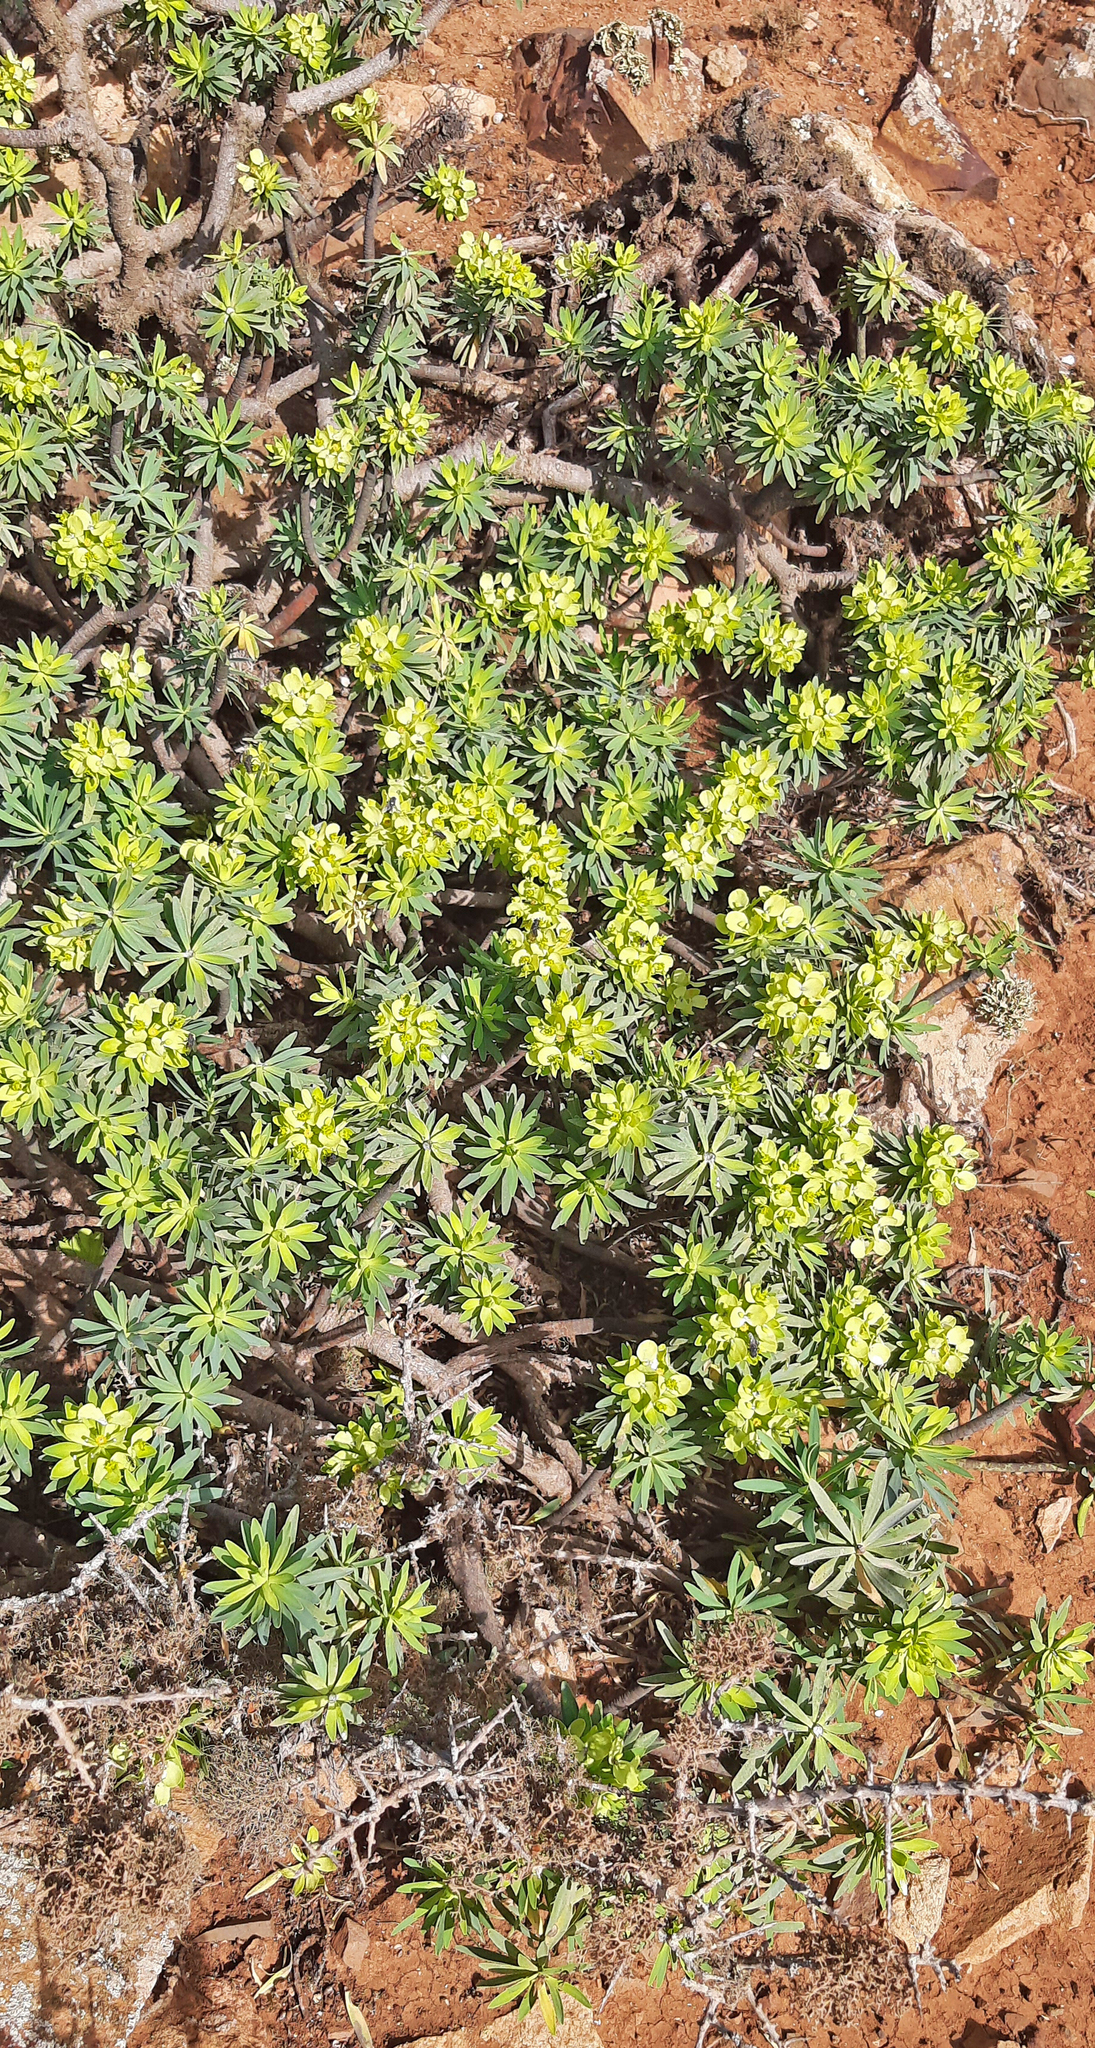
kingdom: Plantae
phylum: Tracheophyta
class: Magnoliopsida
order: Malpighiales
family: Euphorbiaceae
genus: Euphorbia
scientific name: Euphorbia regis-jubae
